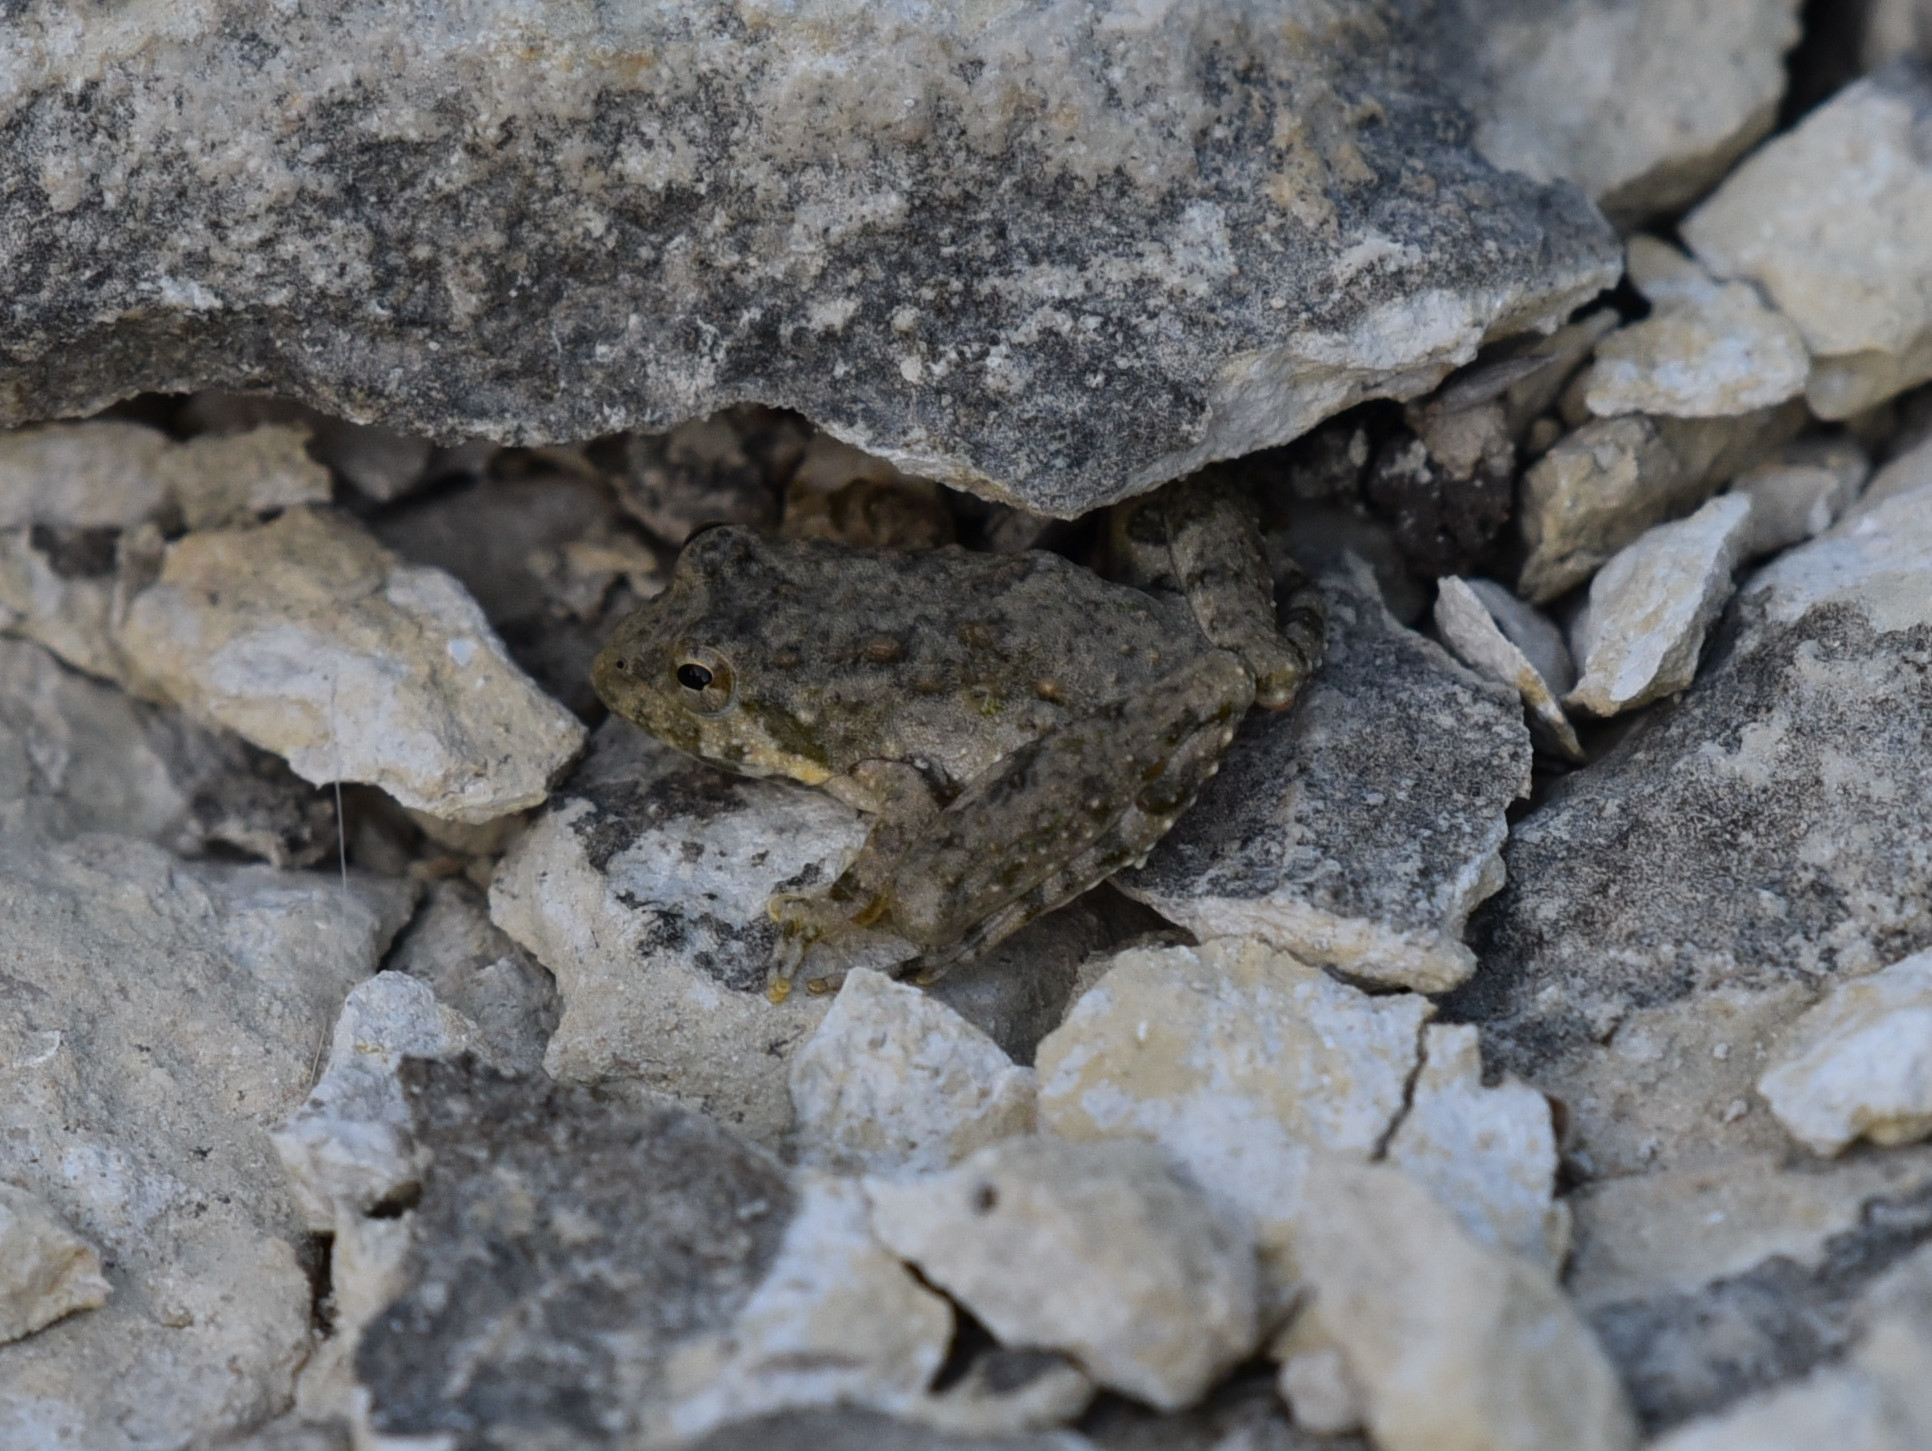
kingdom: Animalia
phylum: Chordata
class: Amphibia
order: Anura
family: Hylidae
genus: Acris
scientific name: Acris blanchardi
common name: Blanchard's cricket frog
